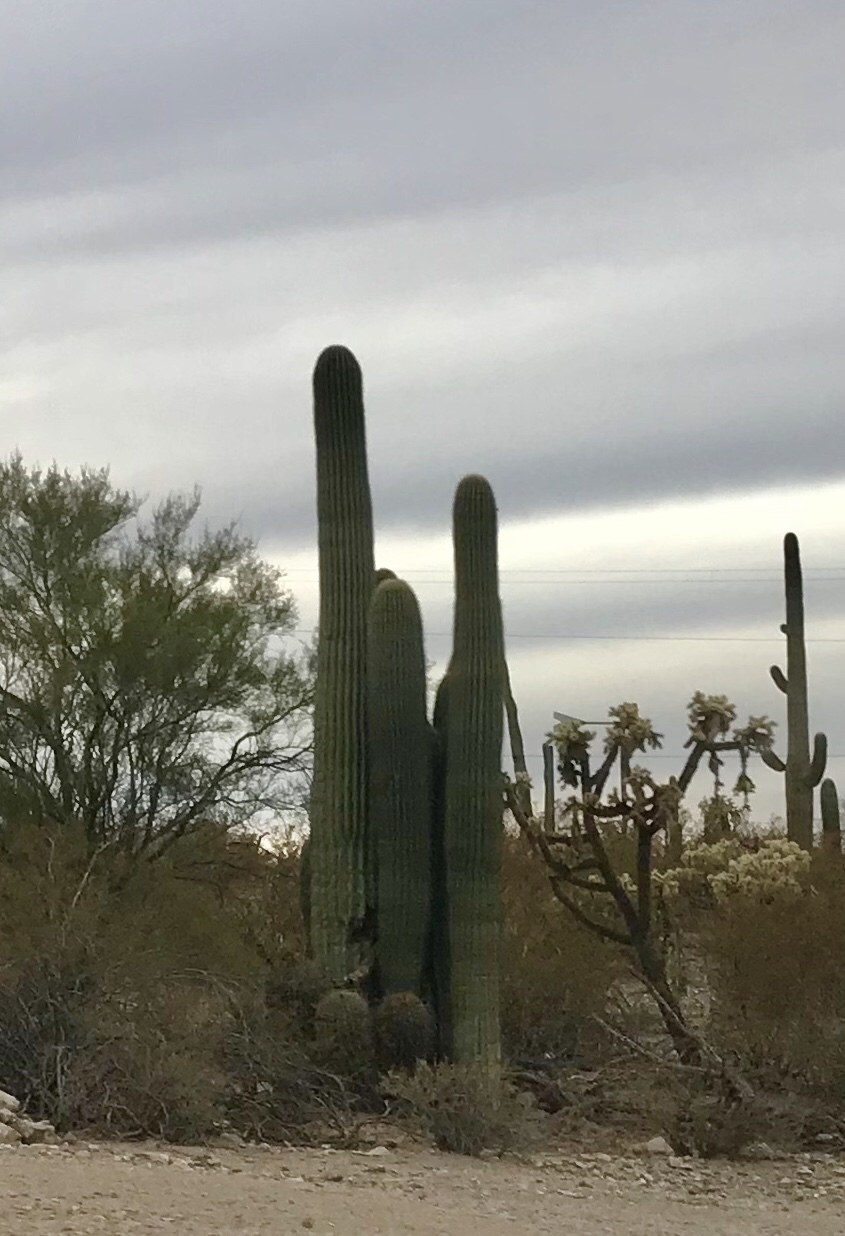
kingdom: Plantae
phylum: Tracheophyta
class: Magnoliopsida
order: Caryophyllales
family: Cactaceae
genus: Carnegiea
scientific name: Carnegiea gigantea
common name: Saguaro
